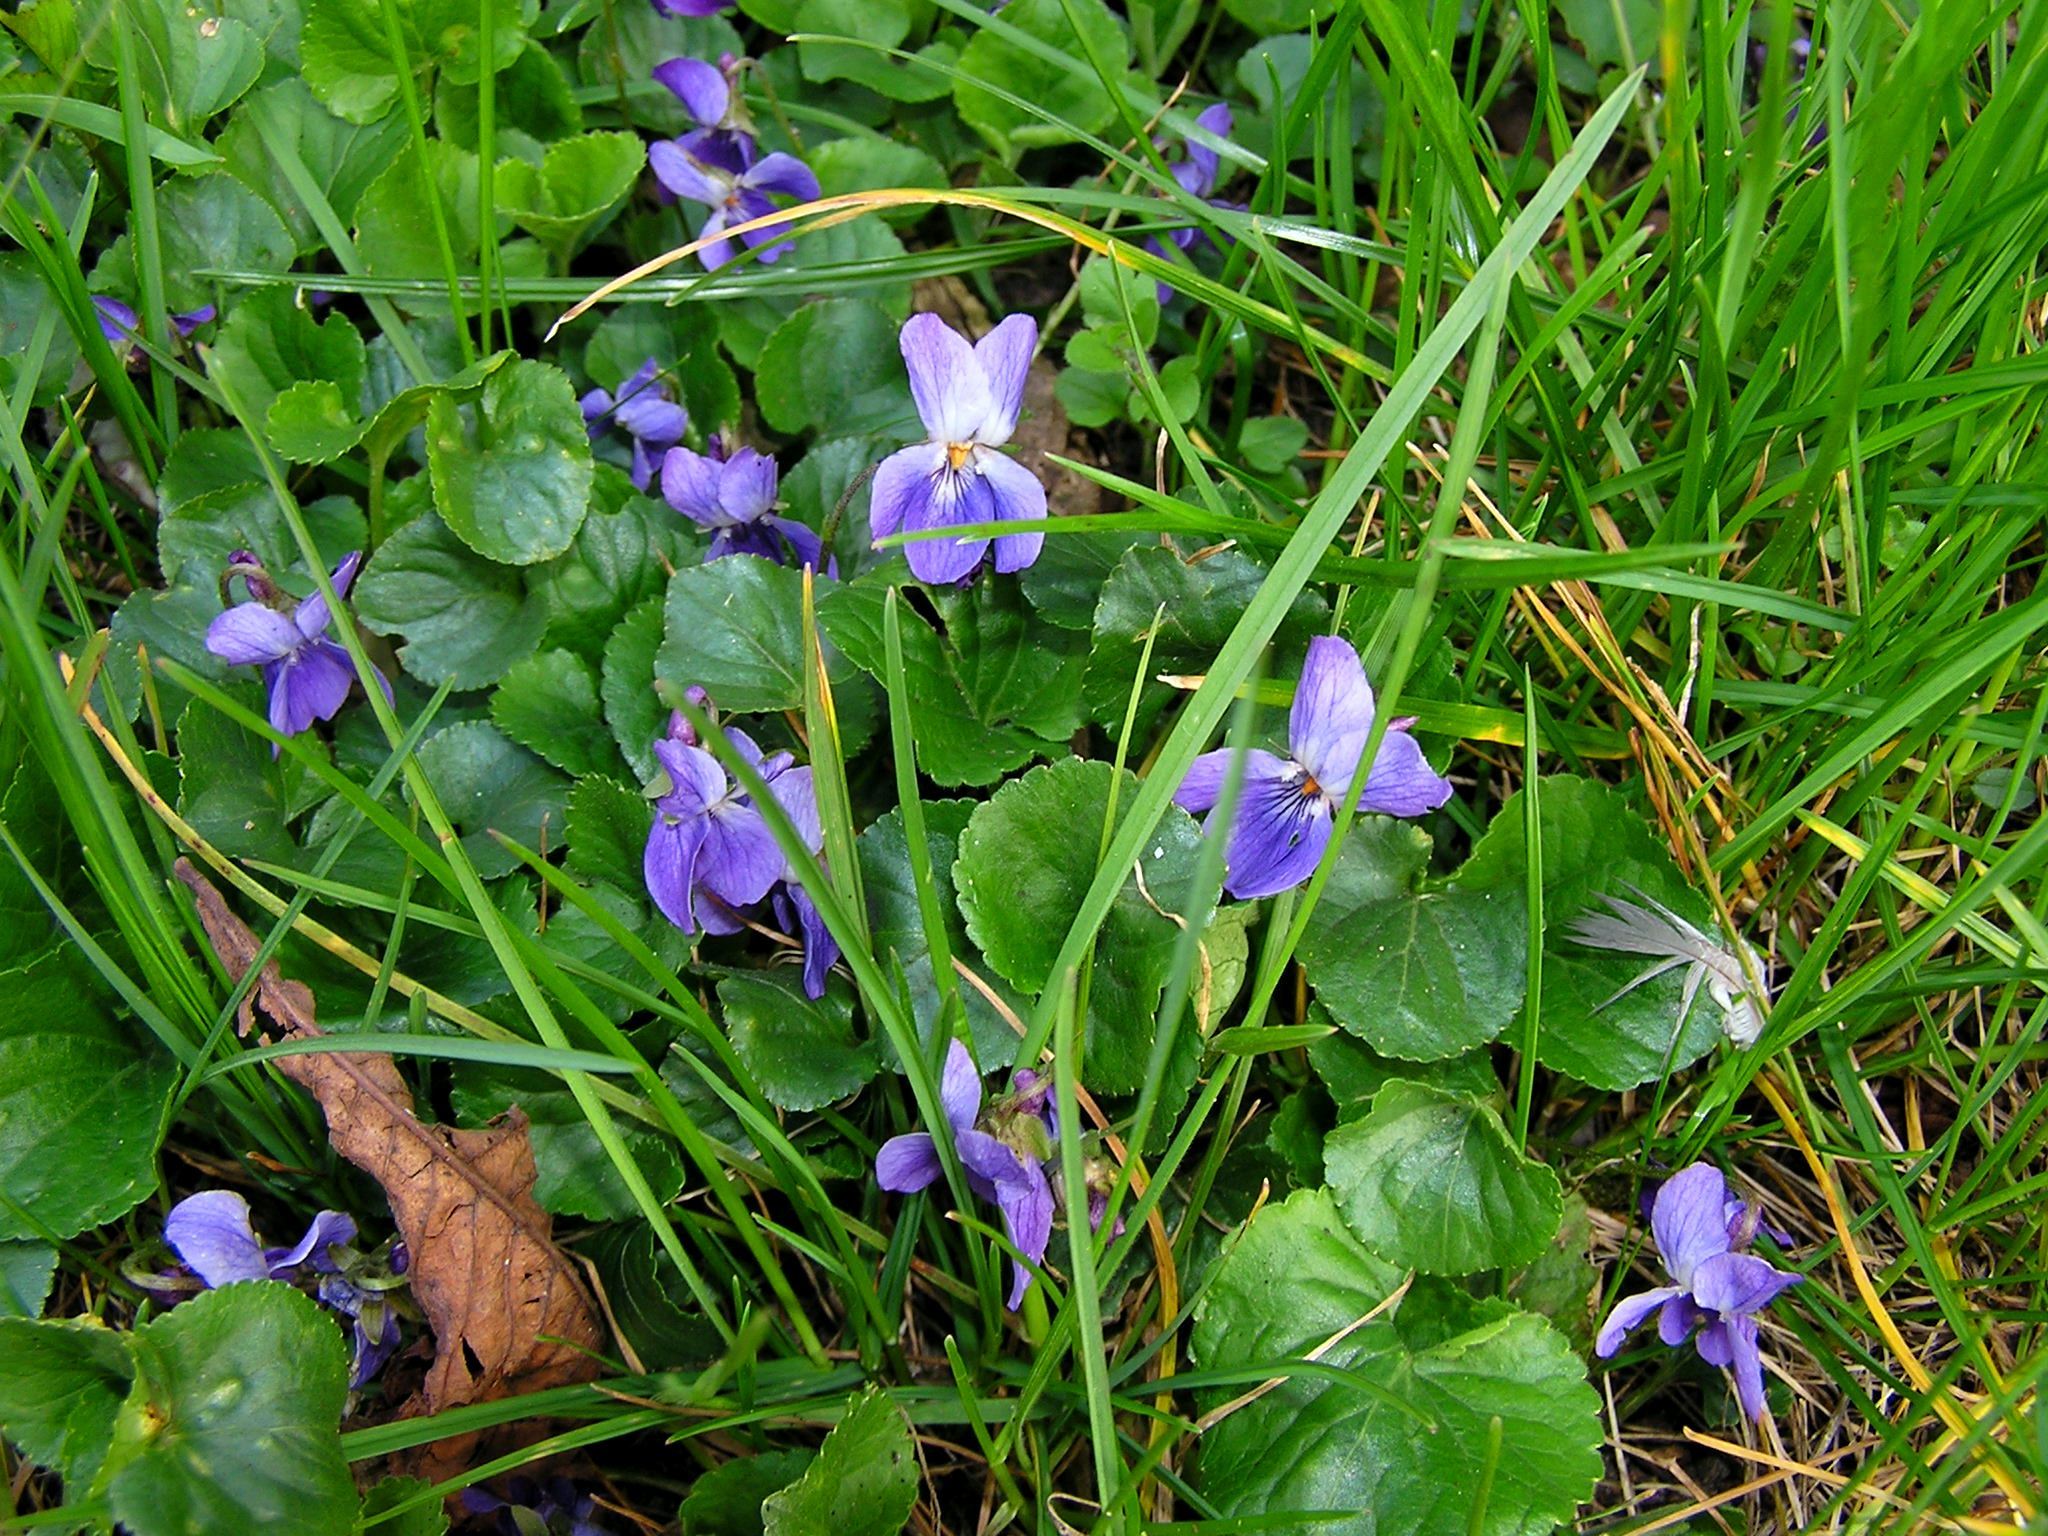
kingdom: Plantae
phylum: Tracheophyta
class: Magnoliopsida
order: Malpighiales
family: Violaceae
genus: Viola
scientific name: Viola odorata
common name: Sweet violet
